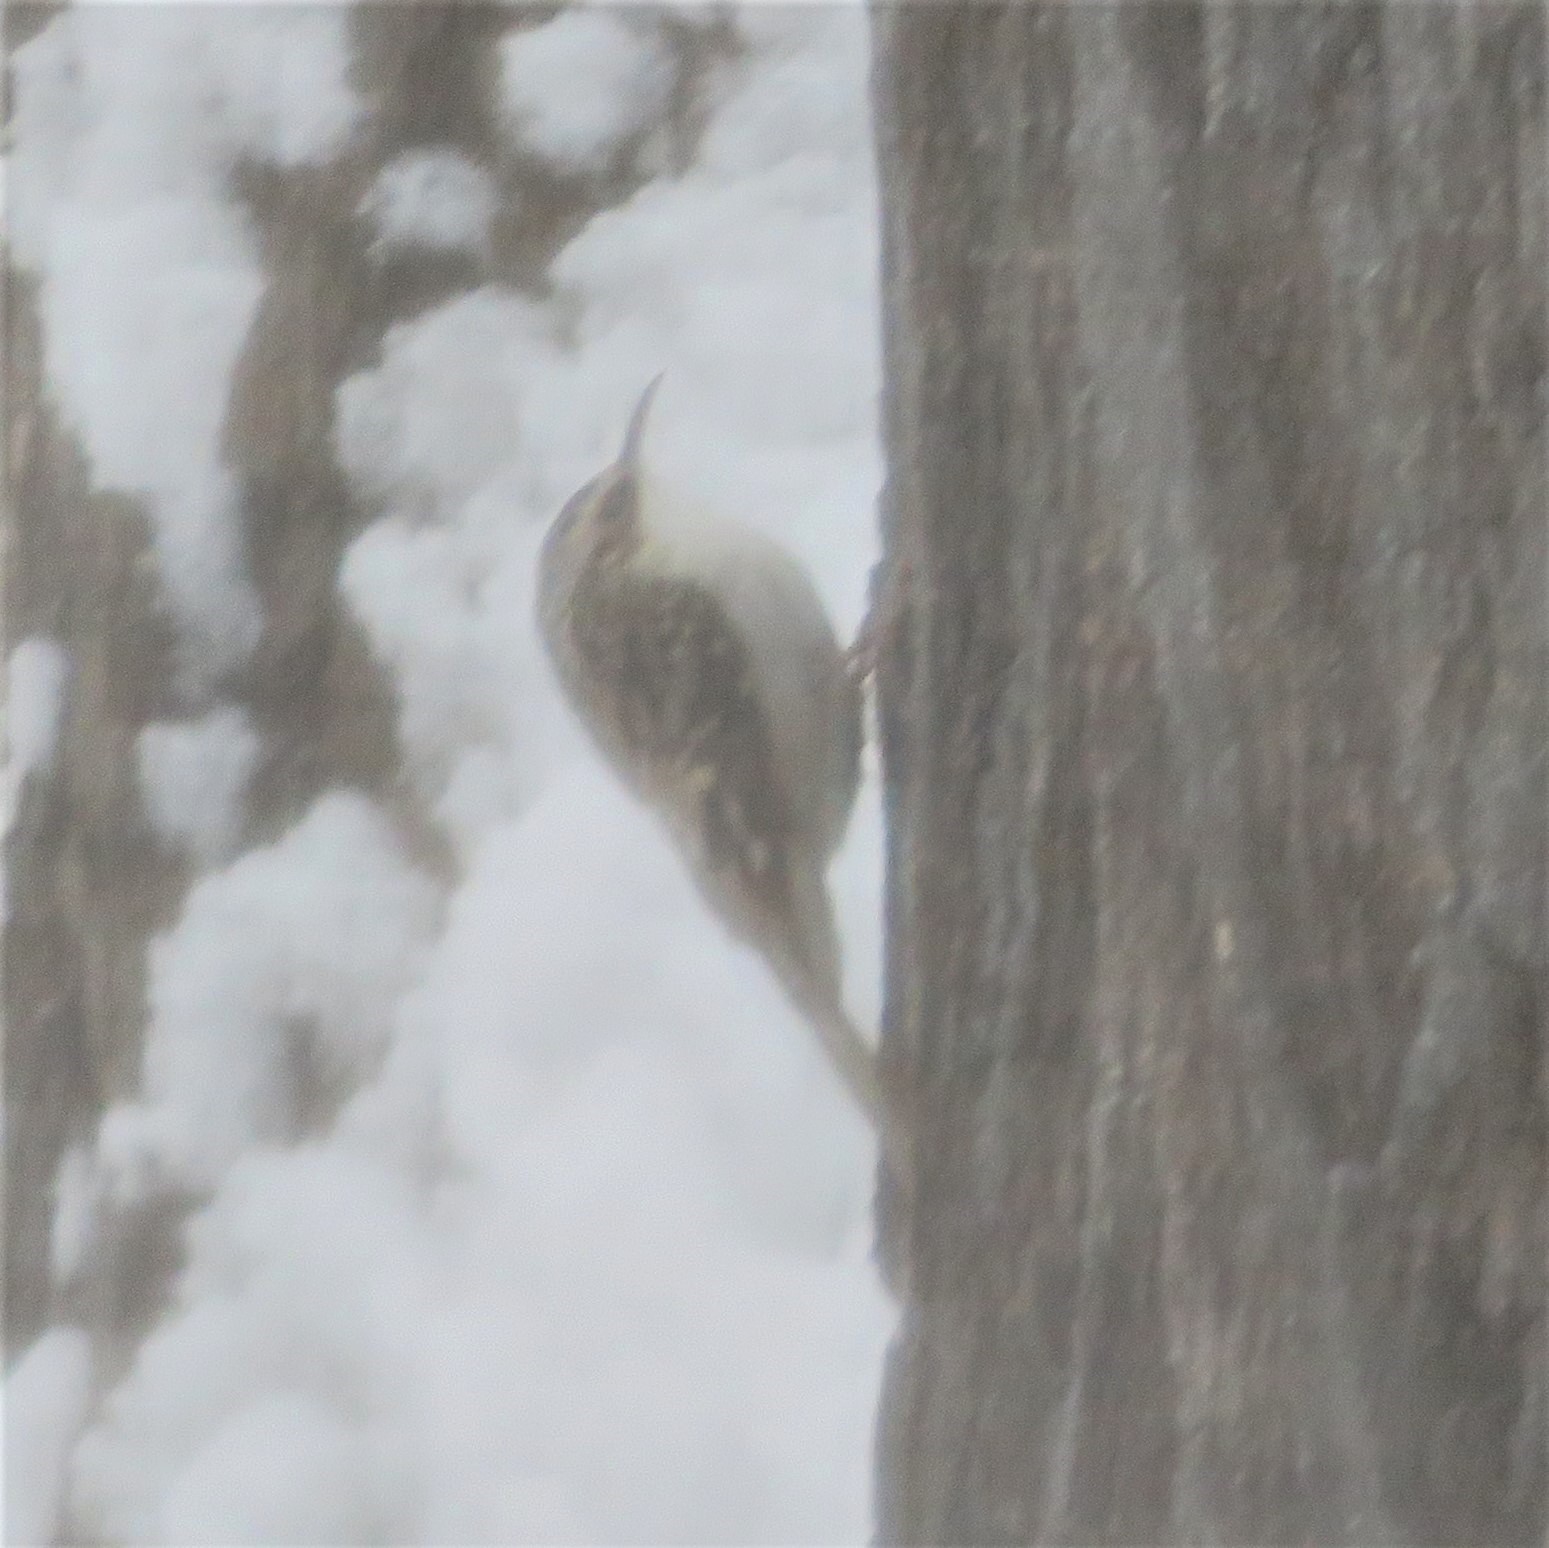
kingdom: Animalia
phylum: Chordata
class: Aves
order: Passeriformes
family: Certhiidae
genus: Certhia
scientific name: Certhia americana
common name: Brown creeper
